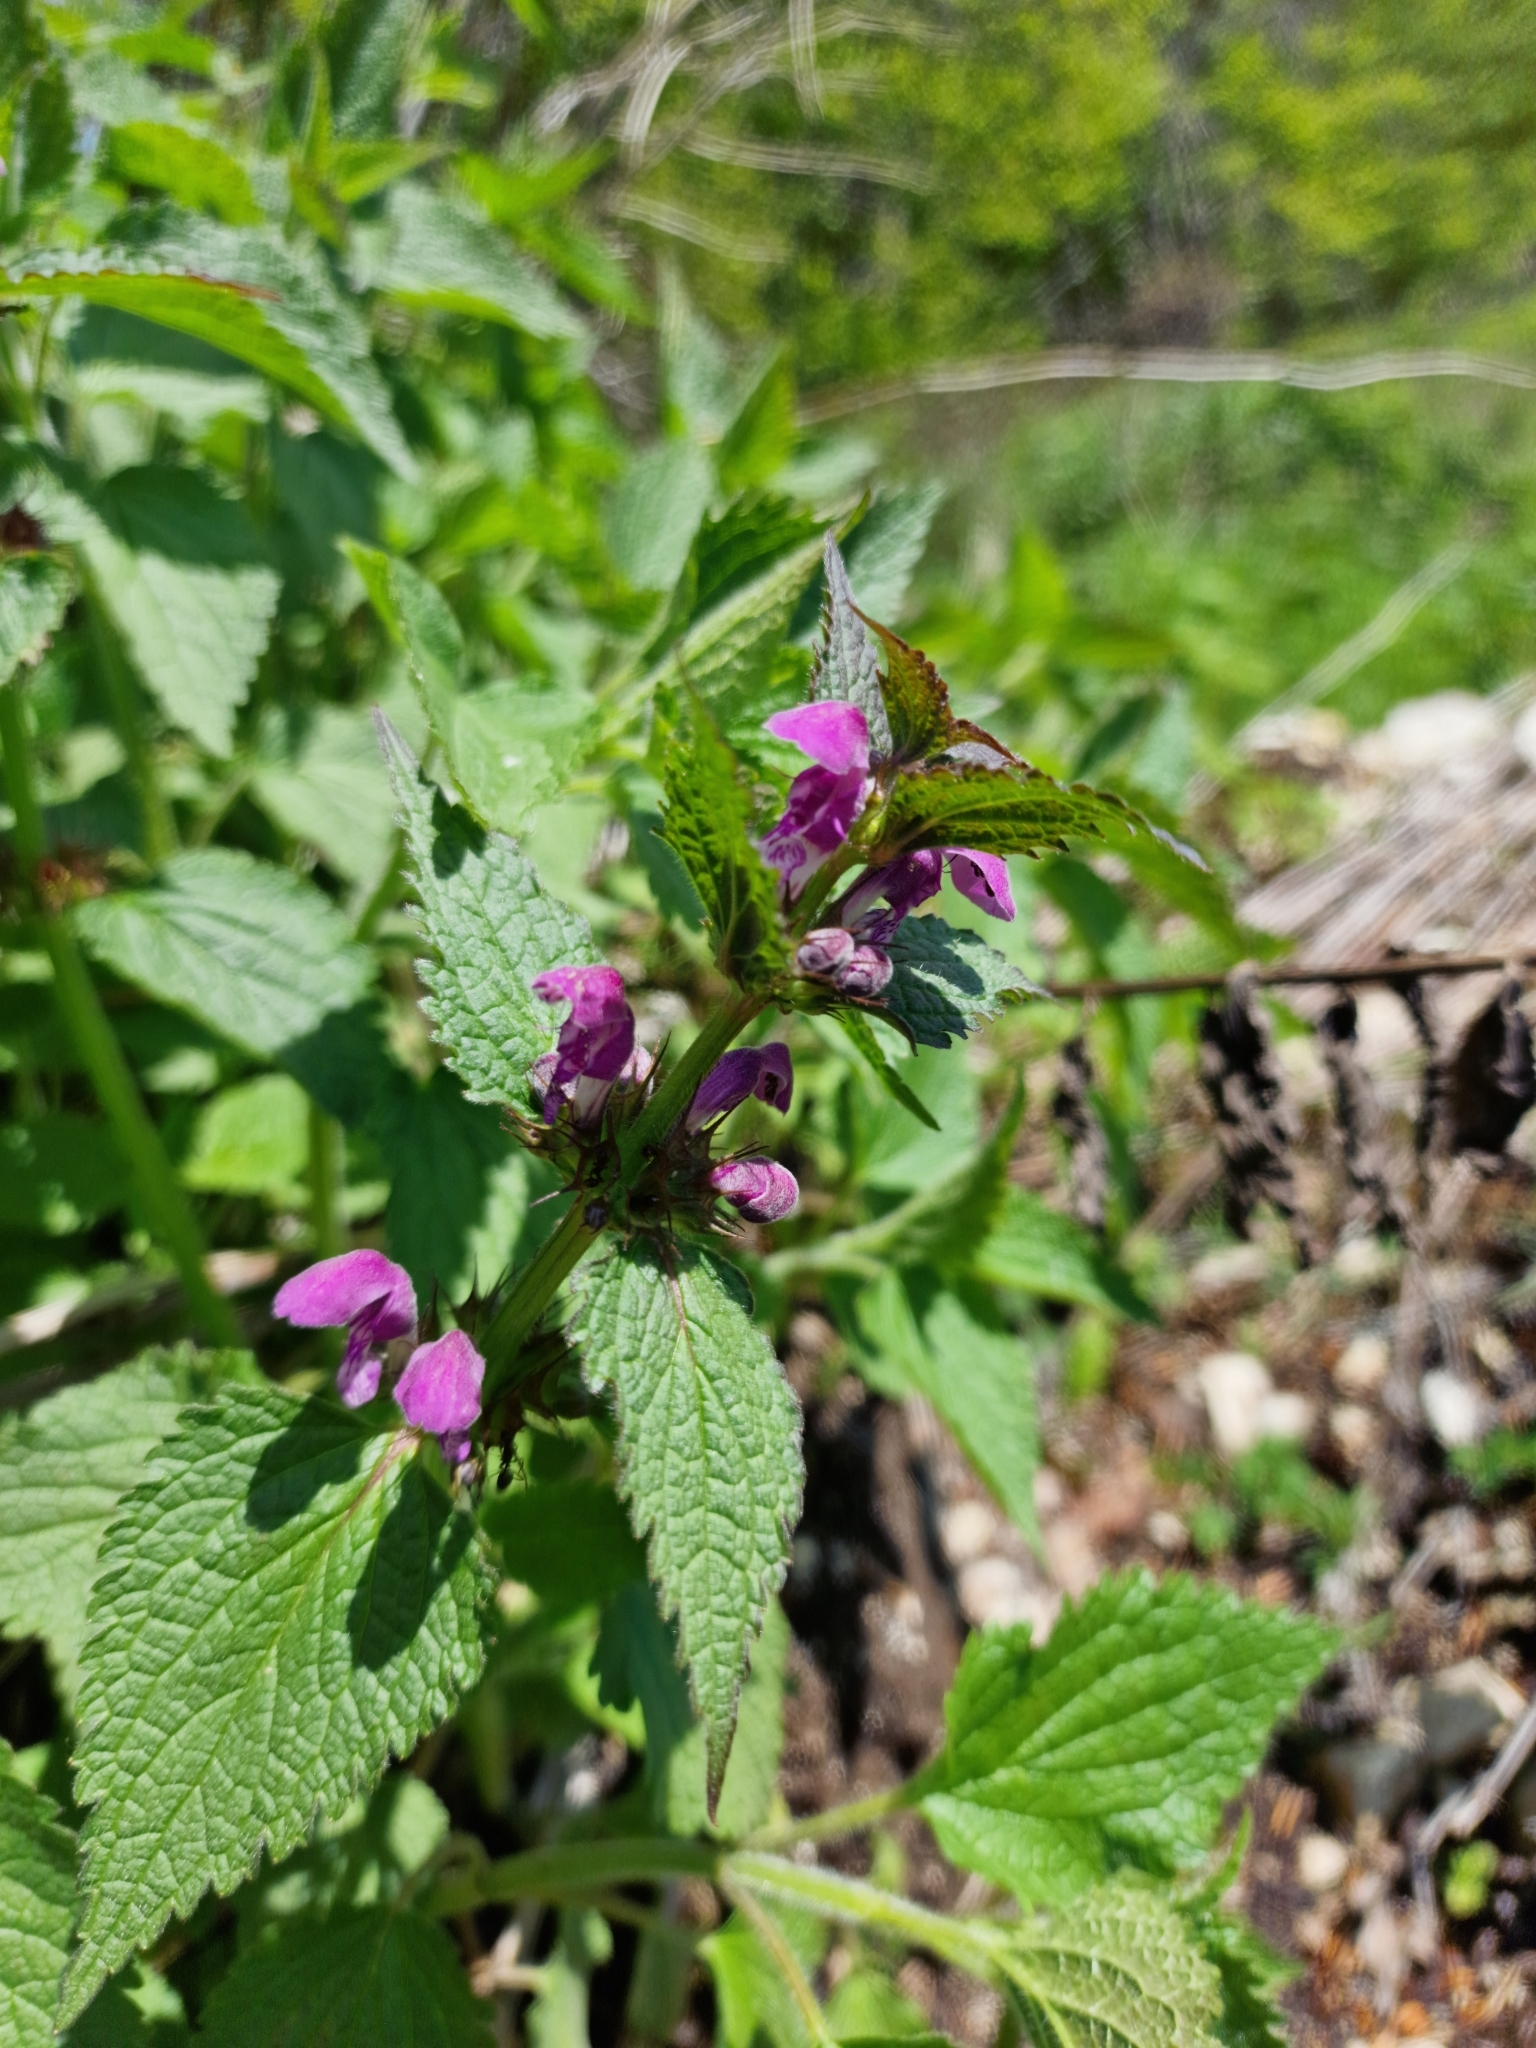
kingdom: Plantae
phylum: Tracheophyta
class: Magnoliopsida
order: Lamiales
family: Lamiaceae
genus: Lamium
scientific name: Lamium maculatum
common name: Spotted dead-nettle
